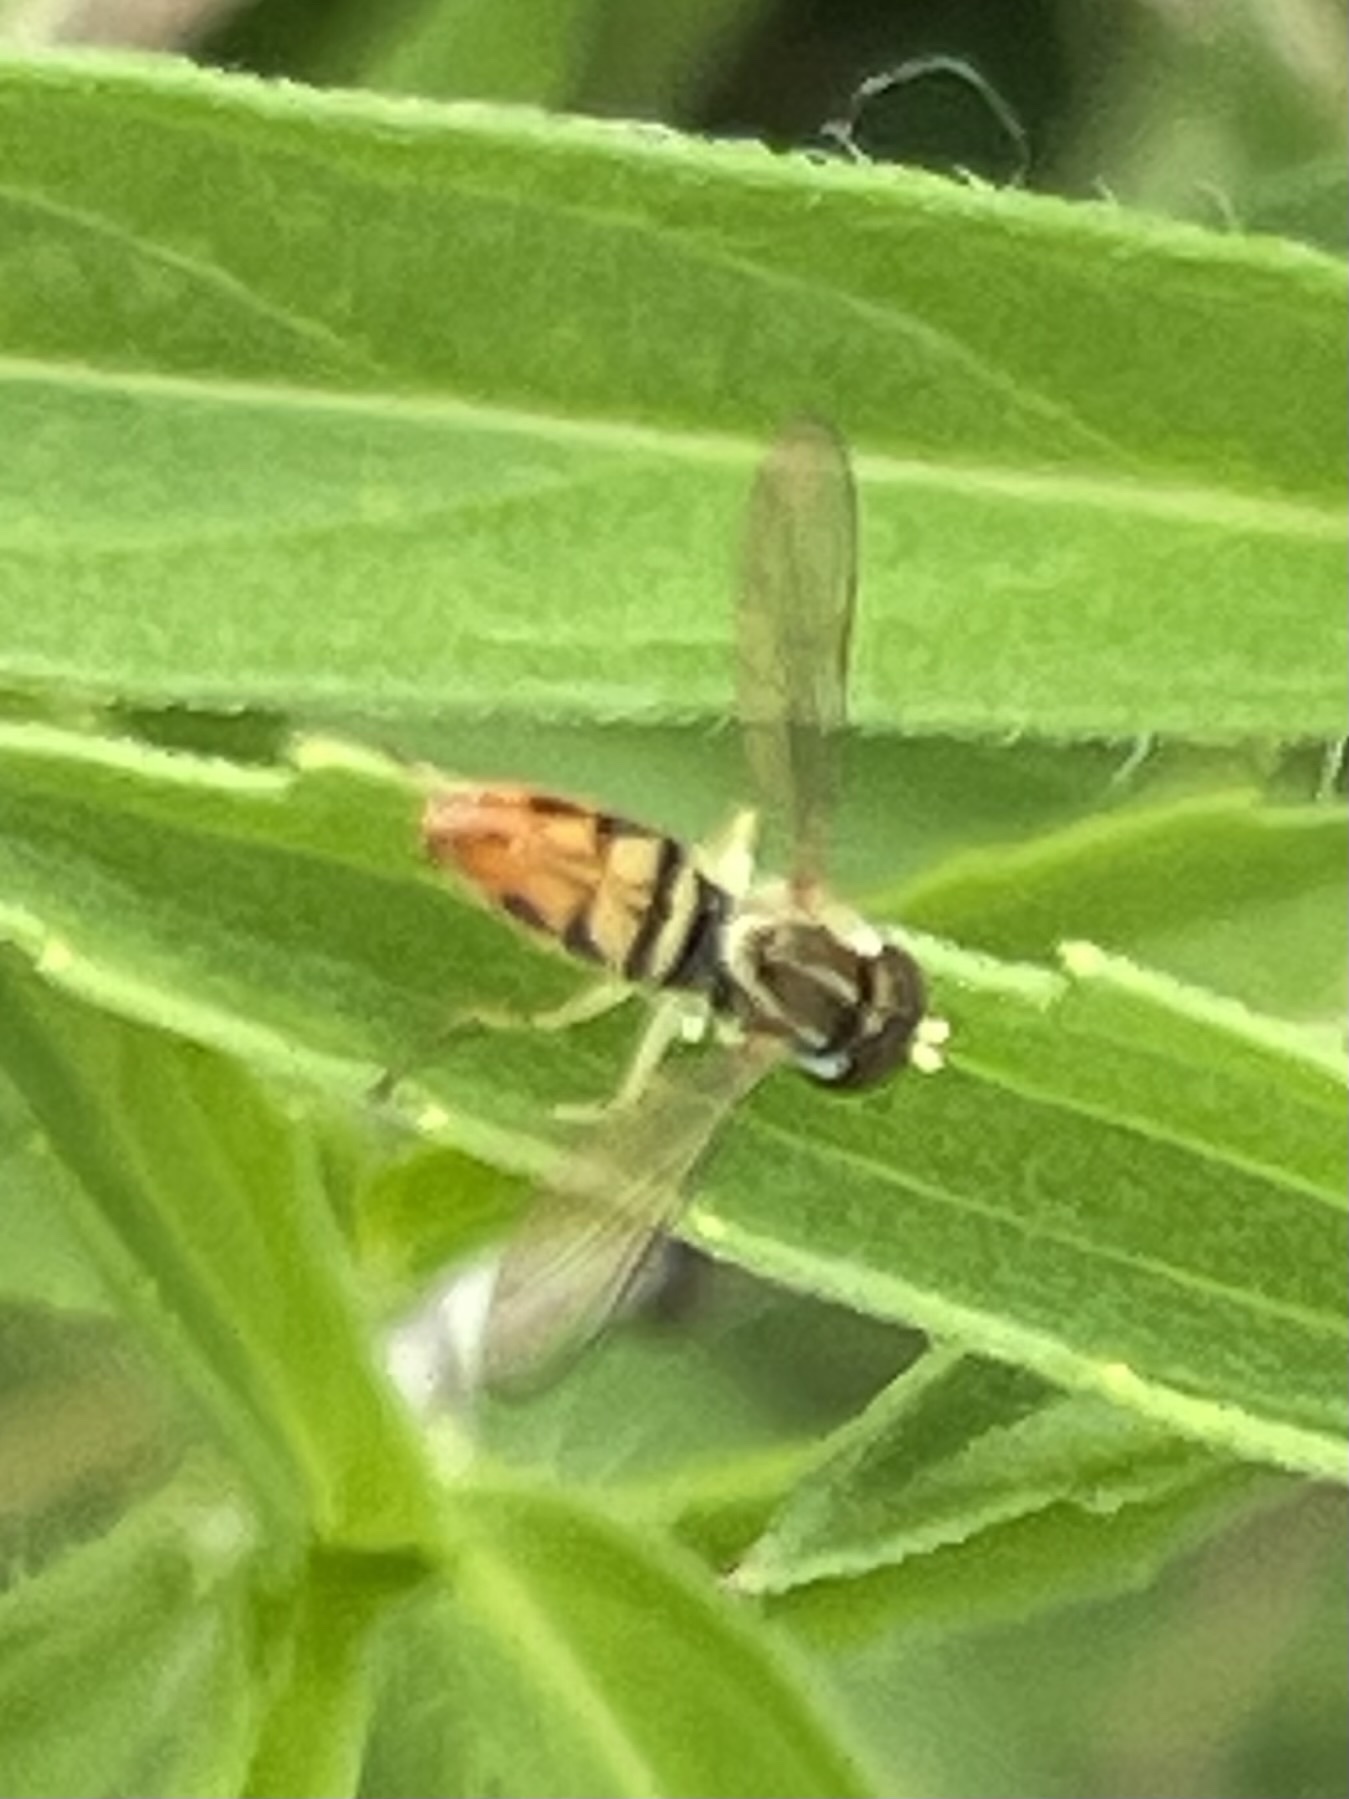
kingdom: Animalia
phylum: Arthropoda
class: Insecta
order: Diptera
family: Syrphidae
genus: Toxomerus
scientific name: Toxomerus marginatus
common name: Syrphid fly
